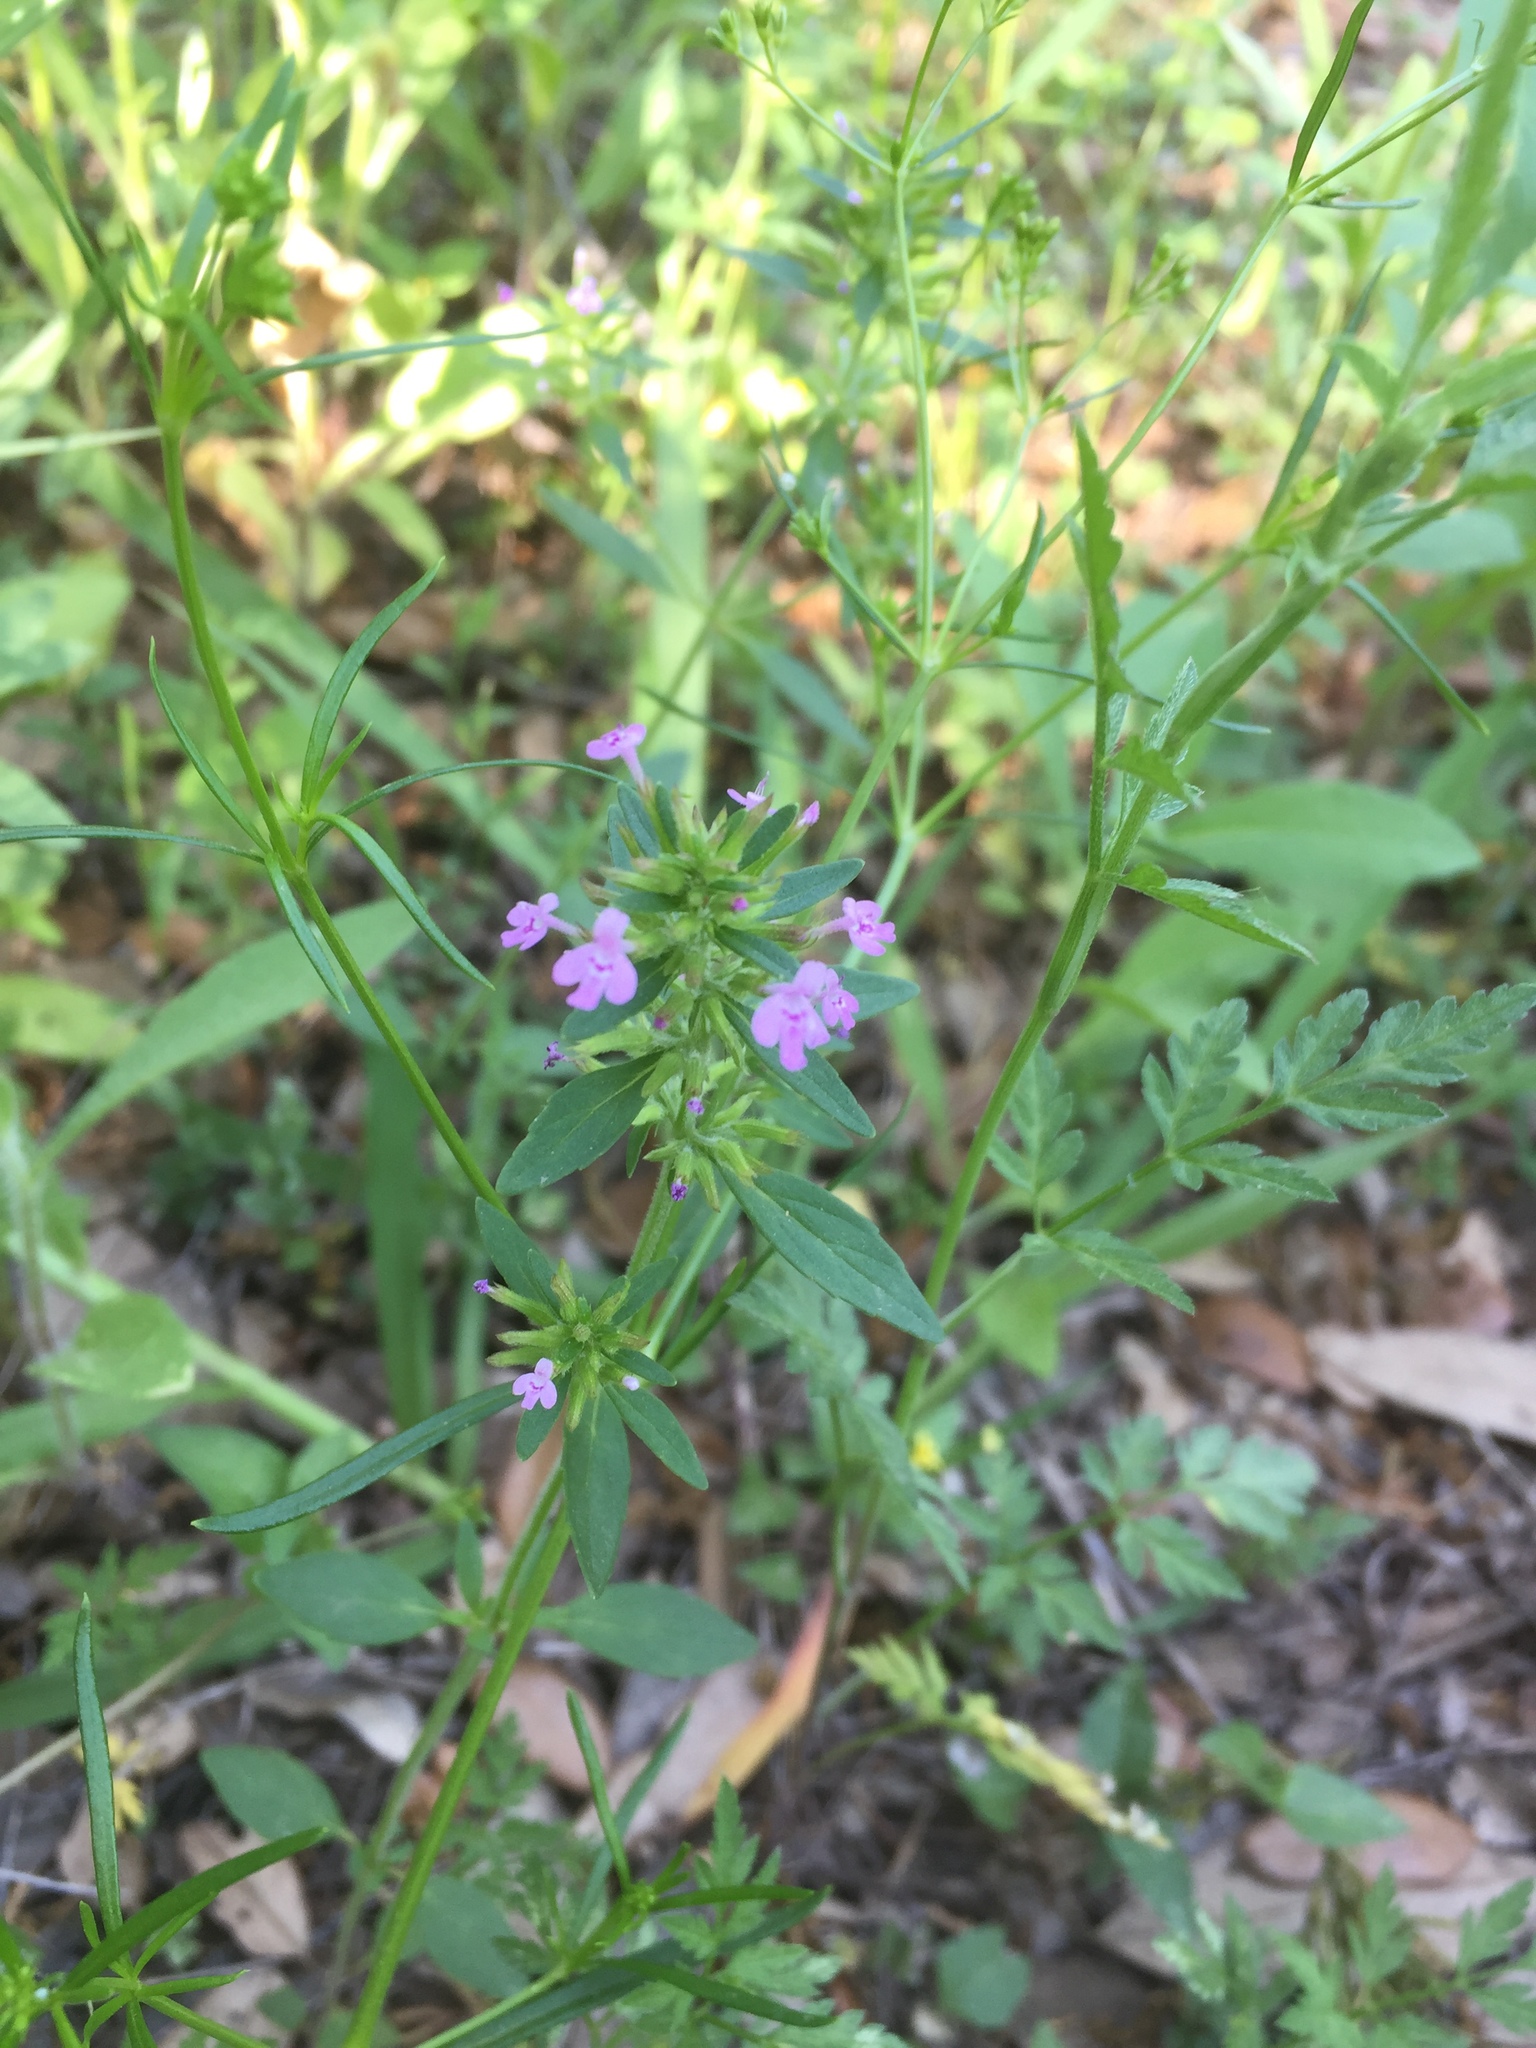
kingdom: Plantae
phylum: Tracheophyta
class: Magnoliopsida
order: Lamiales
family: Lamiaceae
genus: Hedeoma
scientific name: Hedeoma acinoides
